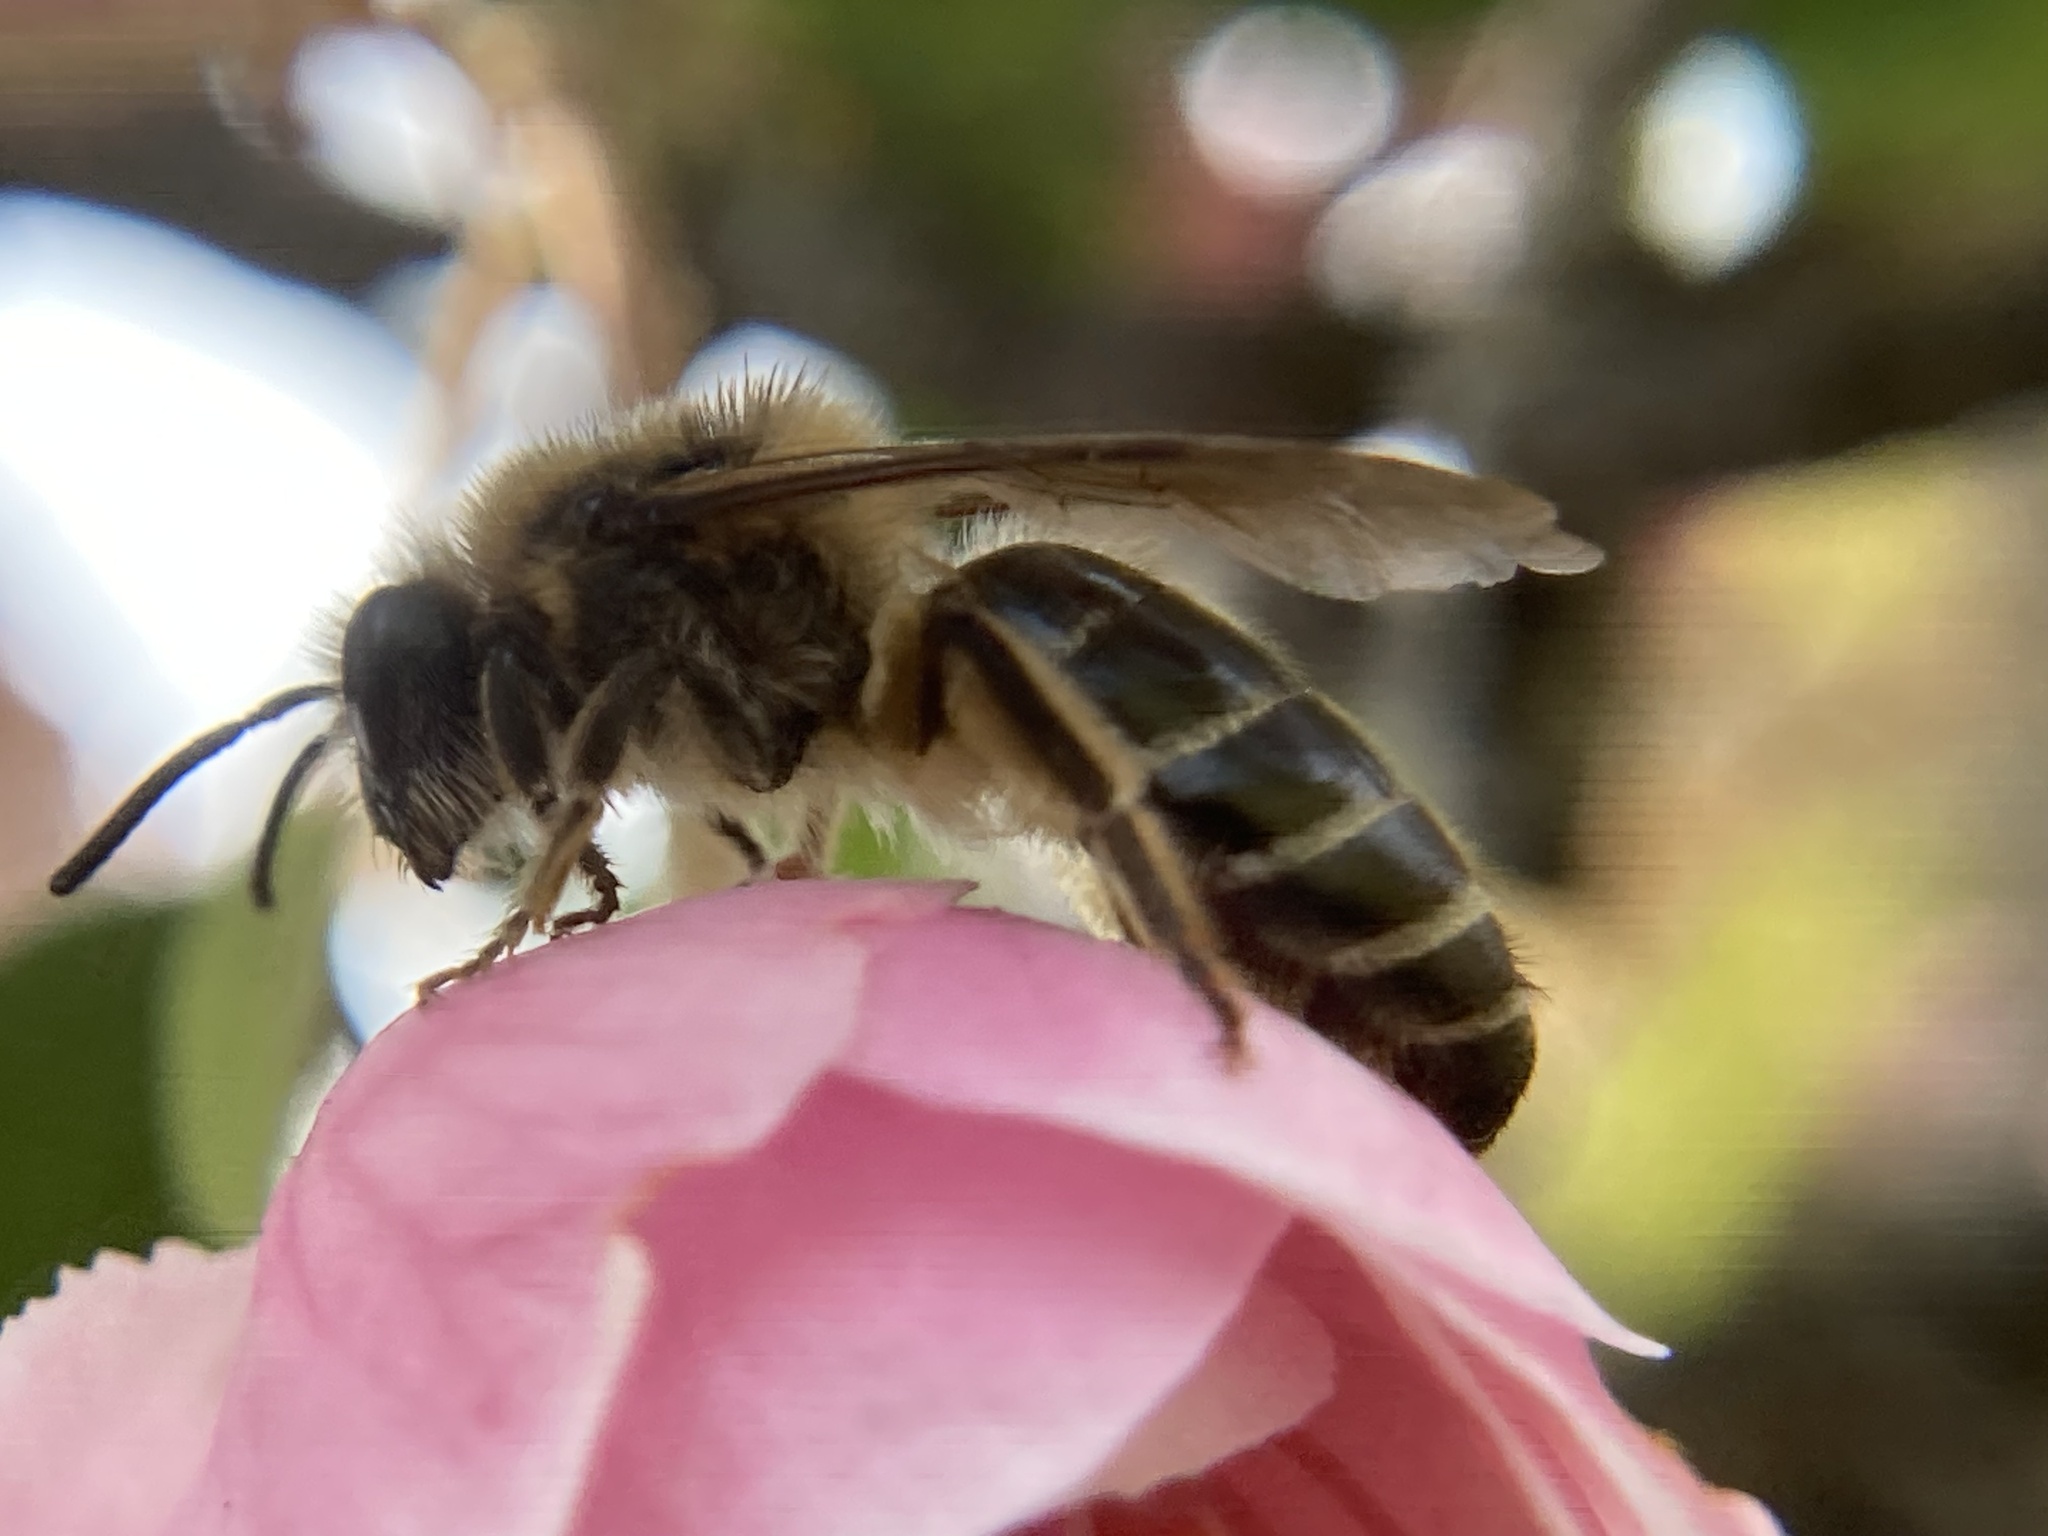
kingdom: Animalia
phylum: Arthropoda
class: Insecta
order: Hymenoptera
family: Colletidae
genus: Colletes
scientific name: Colletes inaequalis
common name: Unequal cellophane bee
